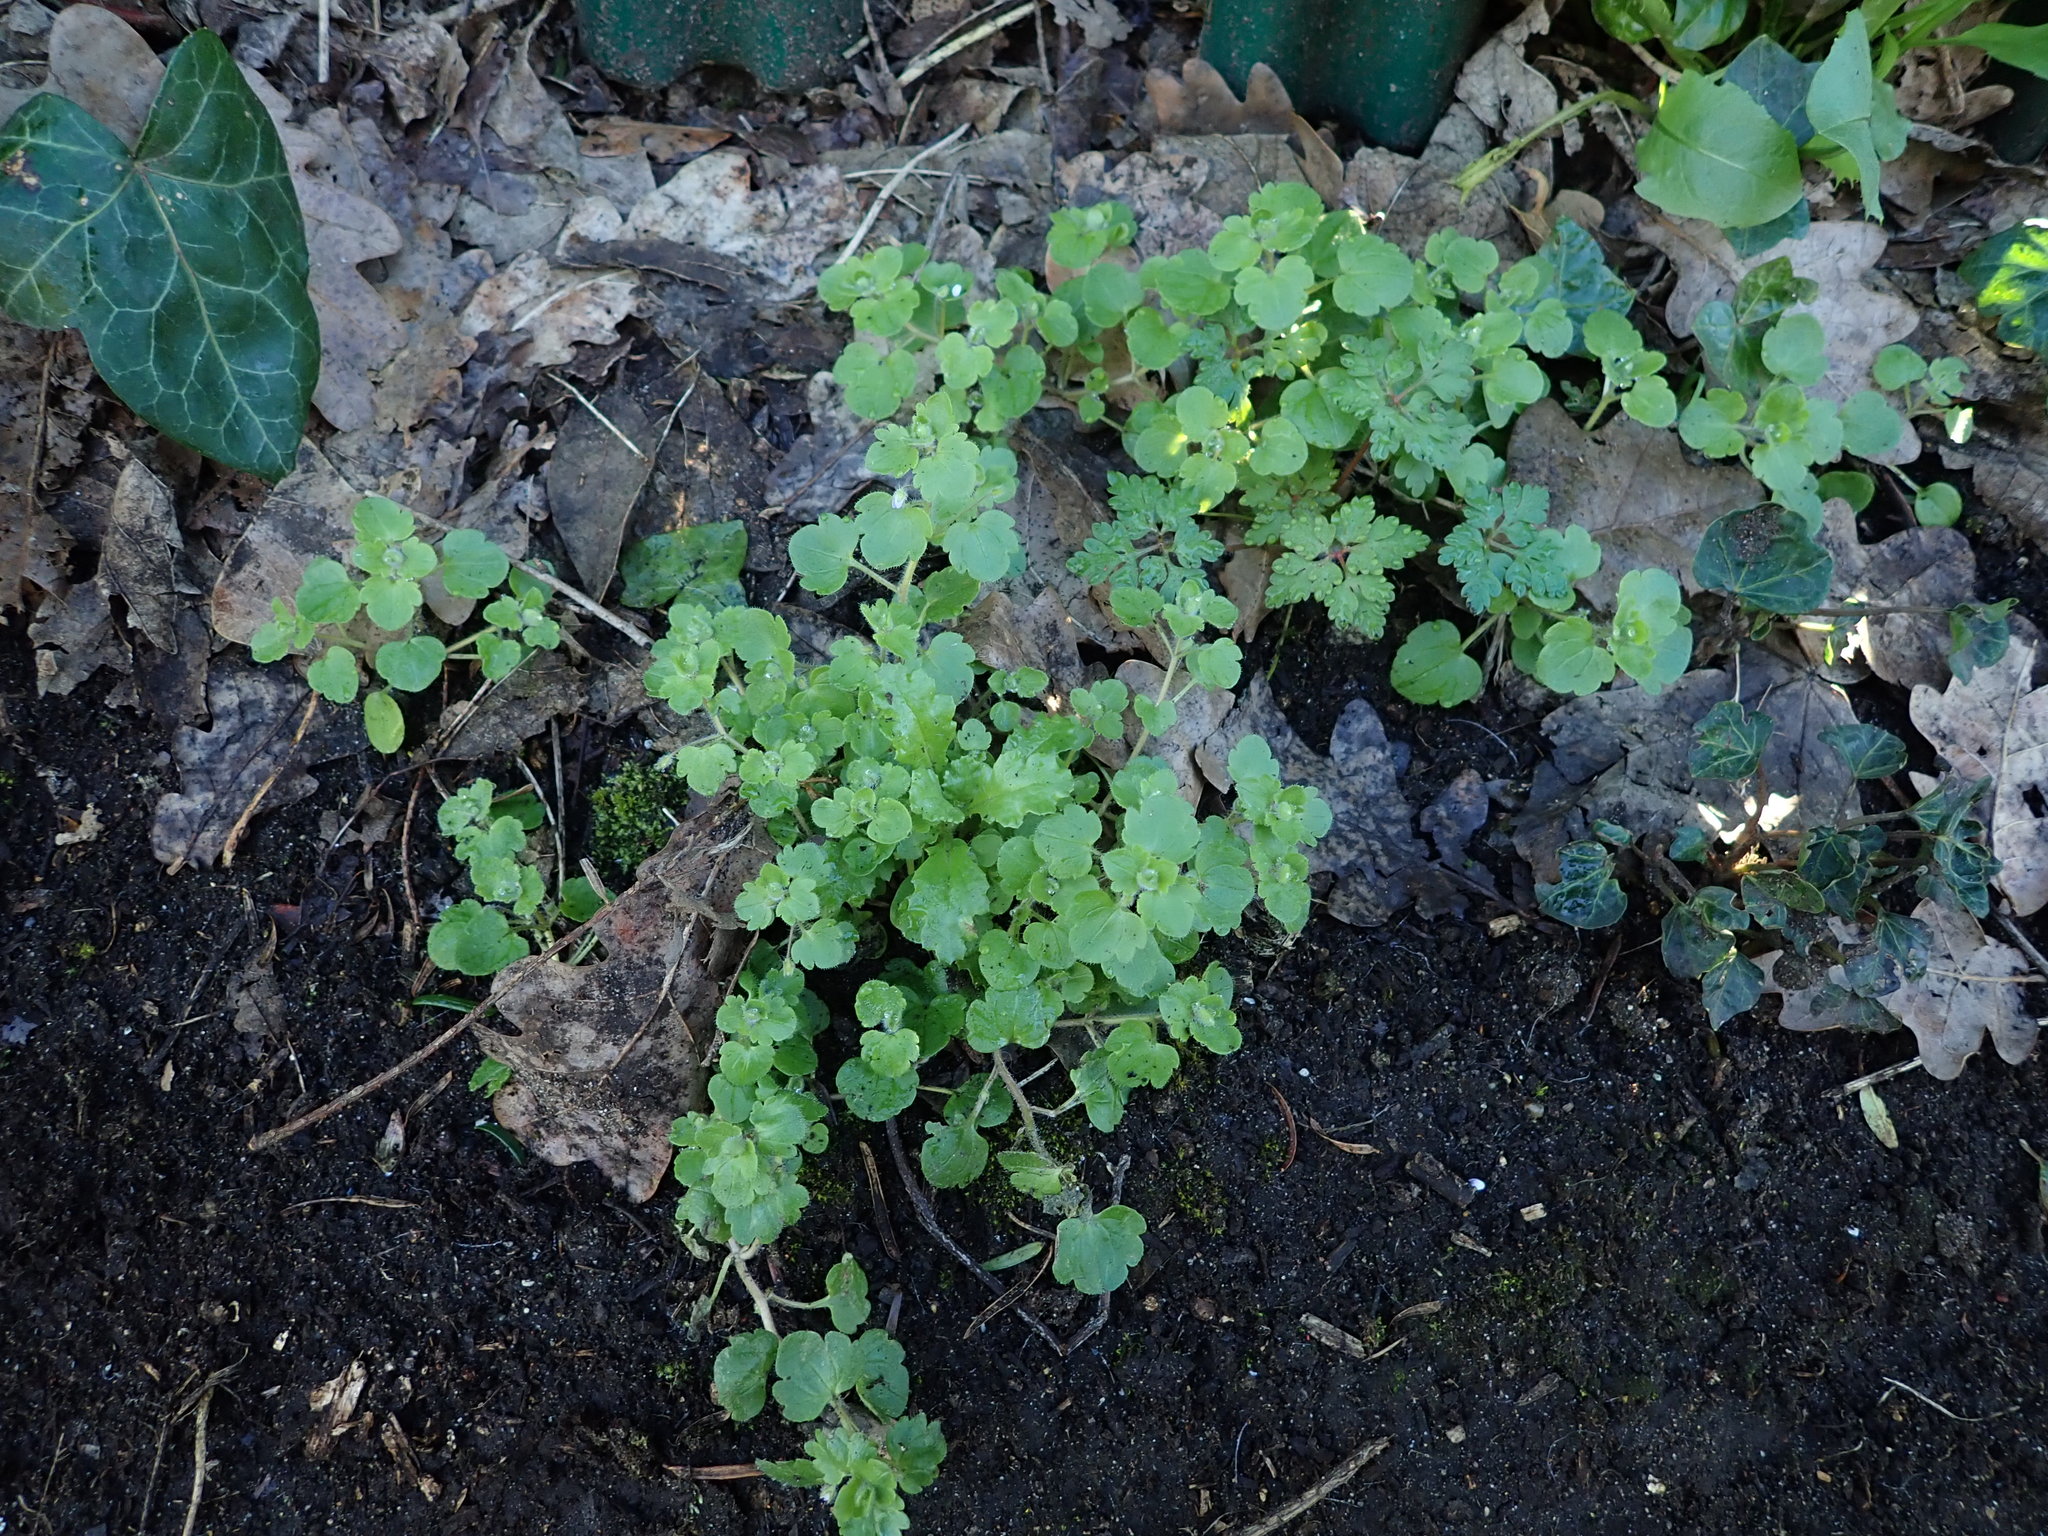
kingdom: Plantae
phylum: Tracheophyta
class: Magnoliopsida
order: Lamiales
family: Plantaginaceae
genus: Veronica
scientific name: Veronica sublobata
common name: False ivy-leaved speedwell
